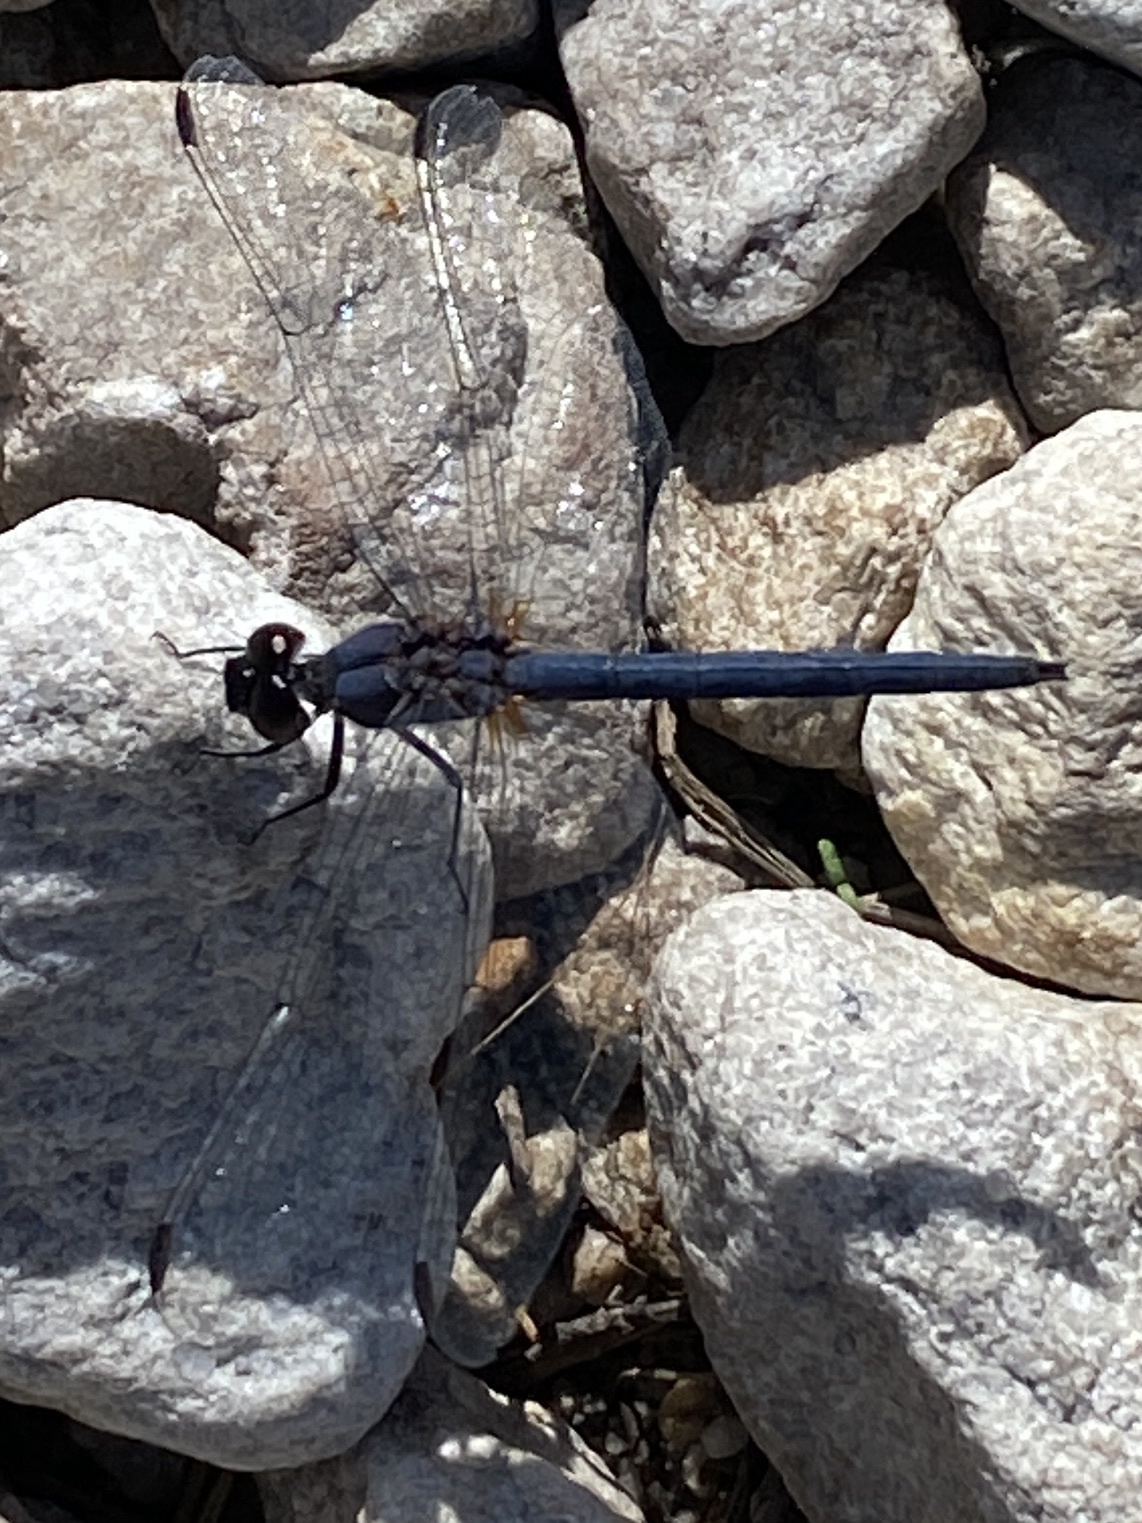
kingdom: Animalia
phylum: Arthropoda
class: Insecta
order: Odonata
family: Libellulidae
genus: Trithemis
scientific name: Trithemis furva
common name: Dark dropwing
